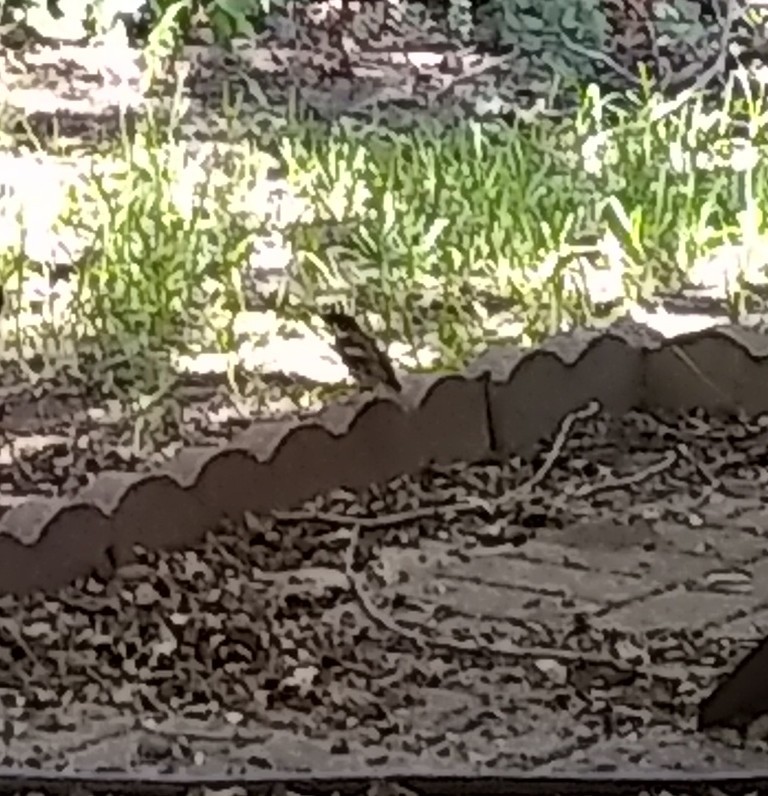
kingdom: Animalia
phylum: Chordata
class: Aves
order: Passeriformes
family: Passeridae
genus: Passer
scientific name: Passer domesticus
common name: House sparrow
